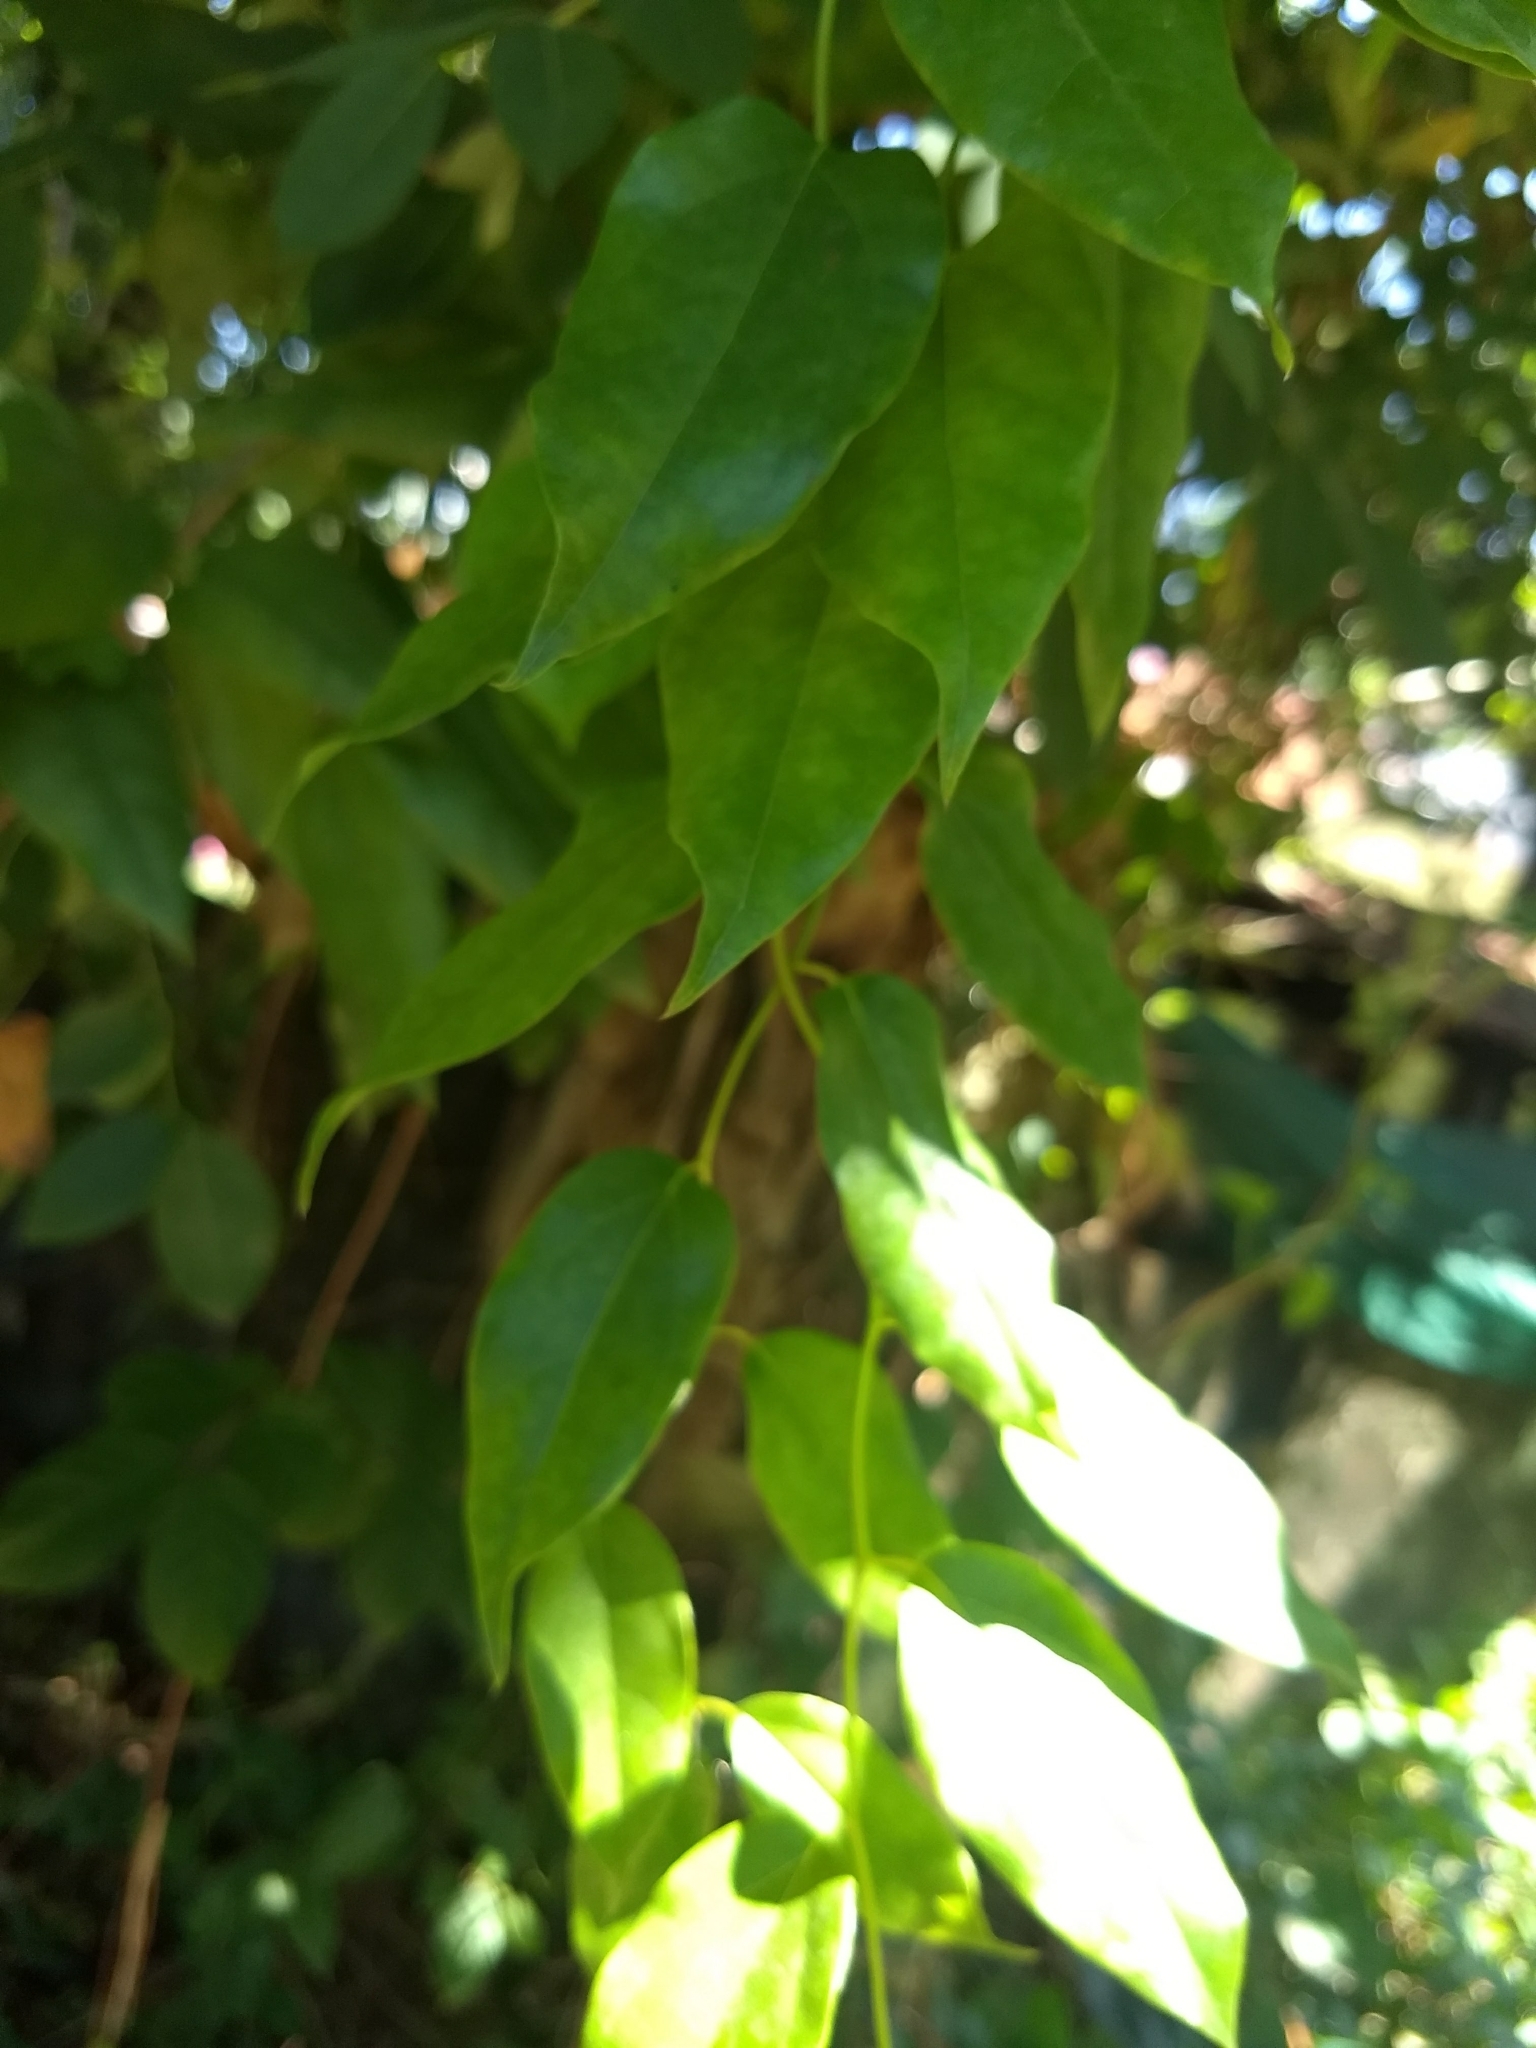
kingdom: Plantae
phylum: Tracheophyta
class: Magnoliopsida
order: Ranunculales
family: Menispermaceae
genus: Tiliacora
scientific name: Tiliacora acuminata
